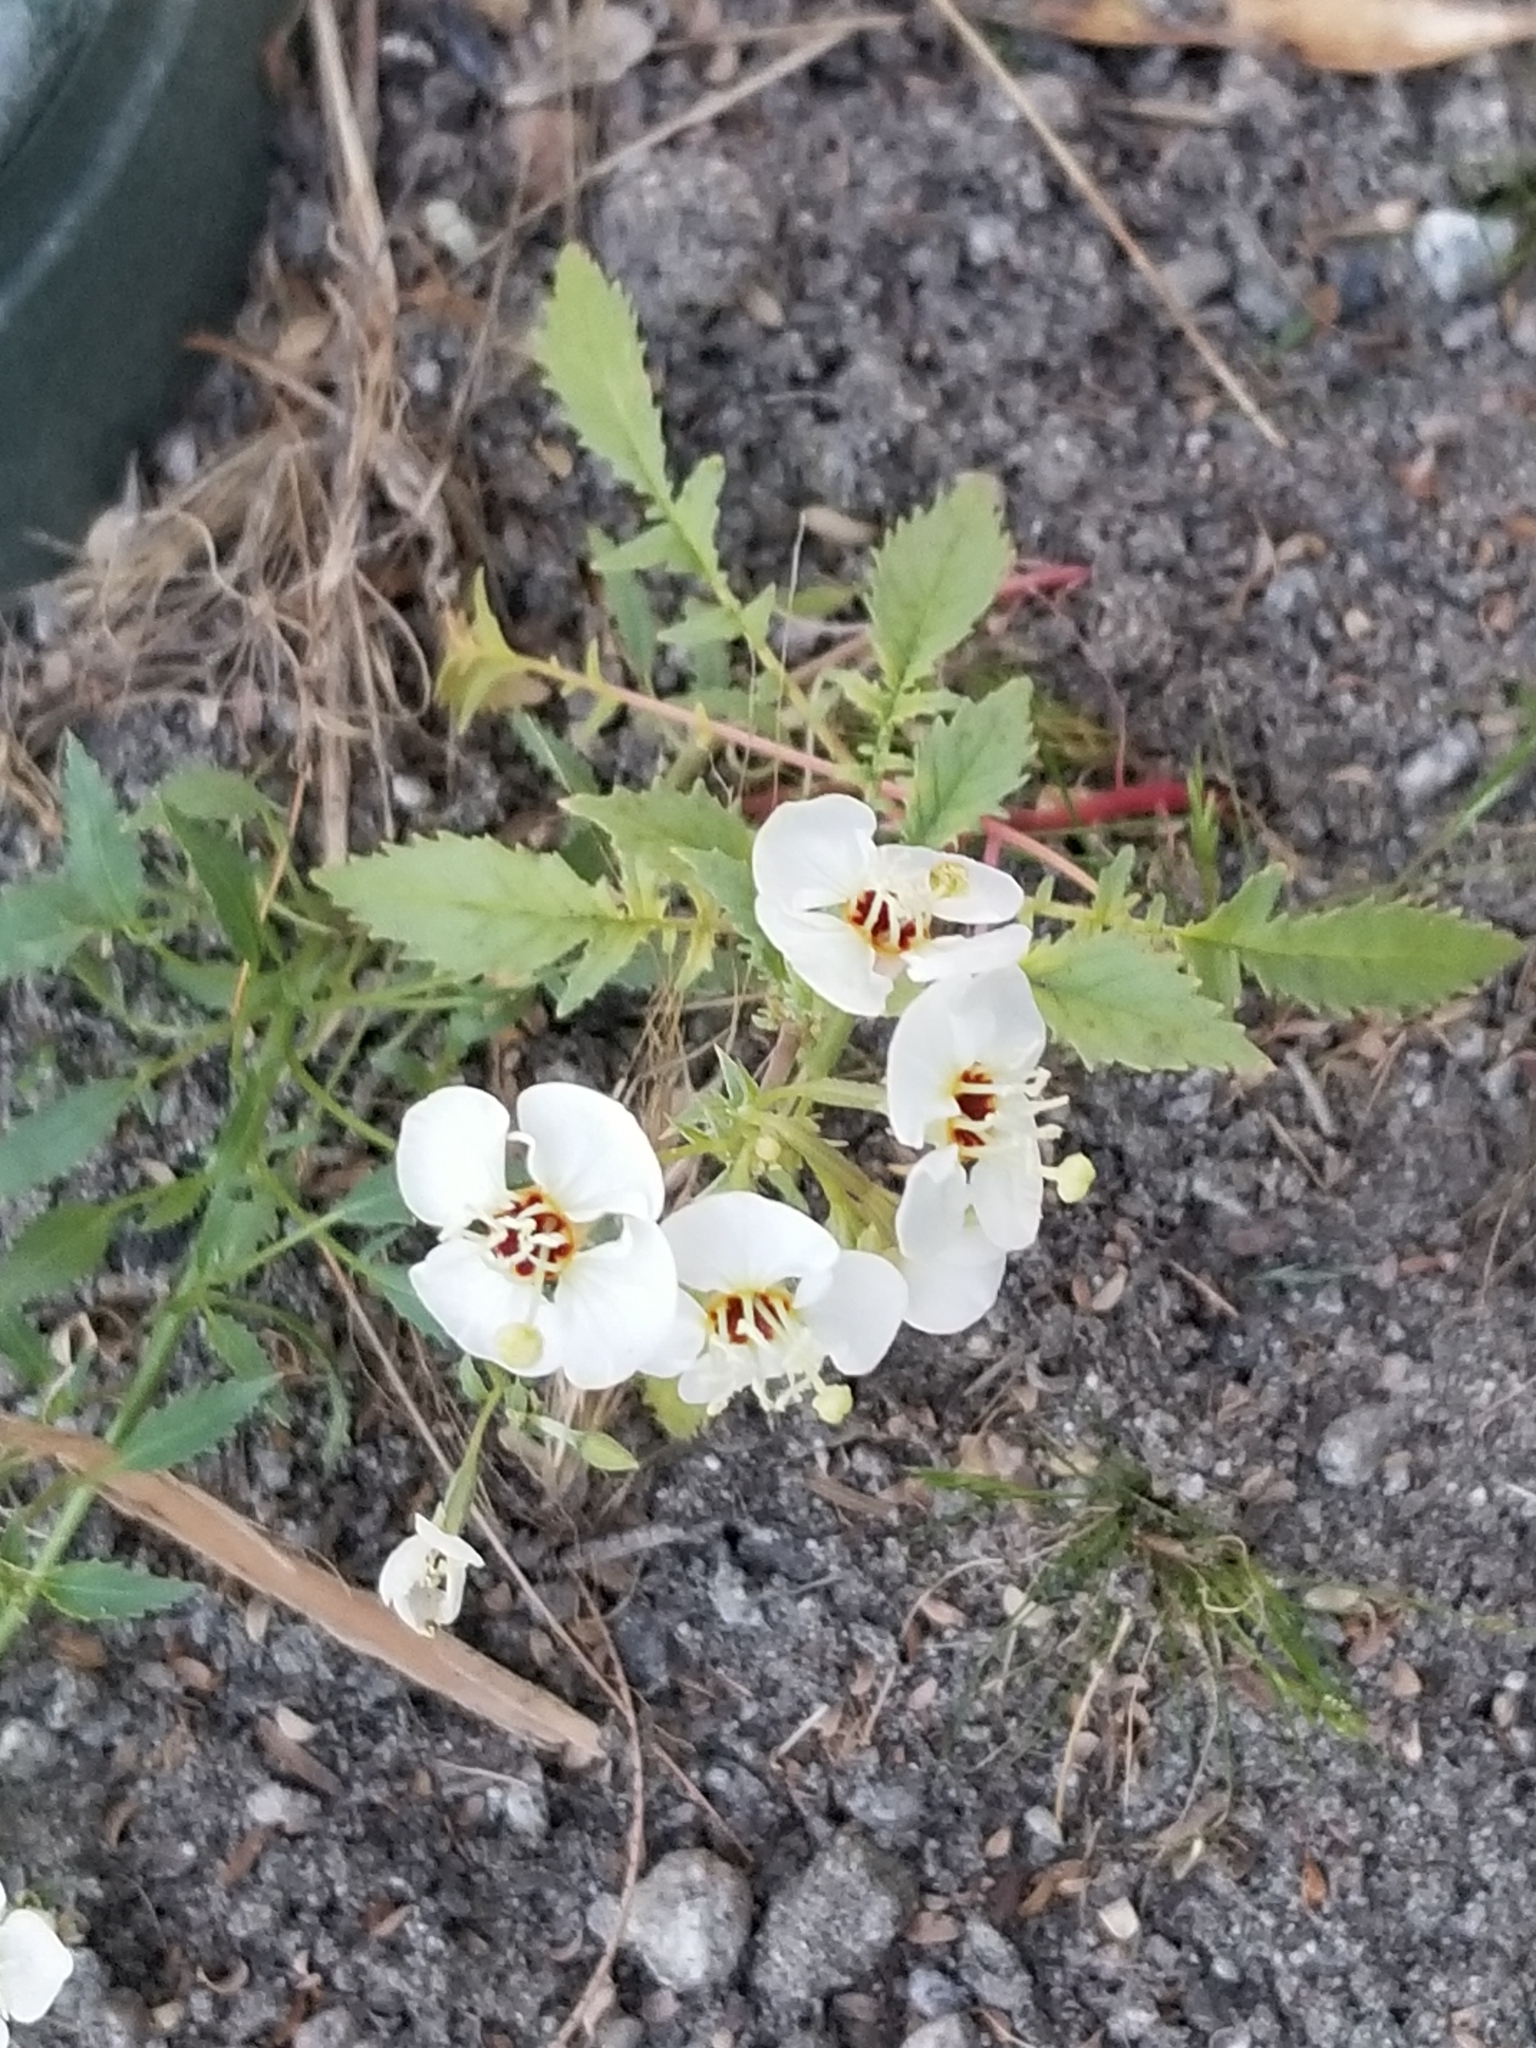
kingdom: Plantae
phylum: Tracheophyta
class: Magnoliopsida
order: Myrtales
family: Onagraceae
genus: Chylismia
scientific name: Chylismia claviformis
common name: Browneyes
